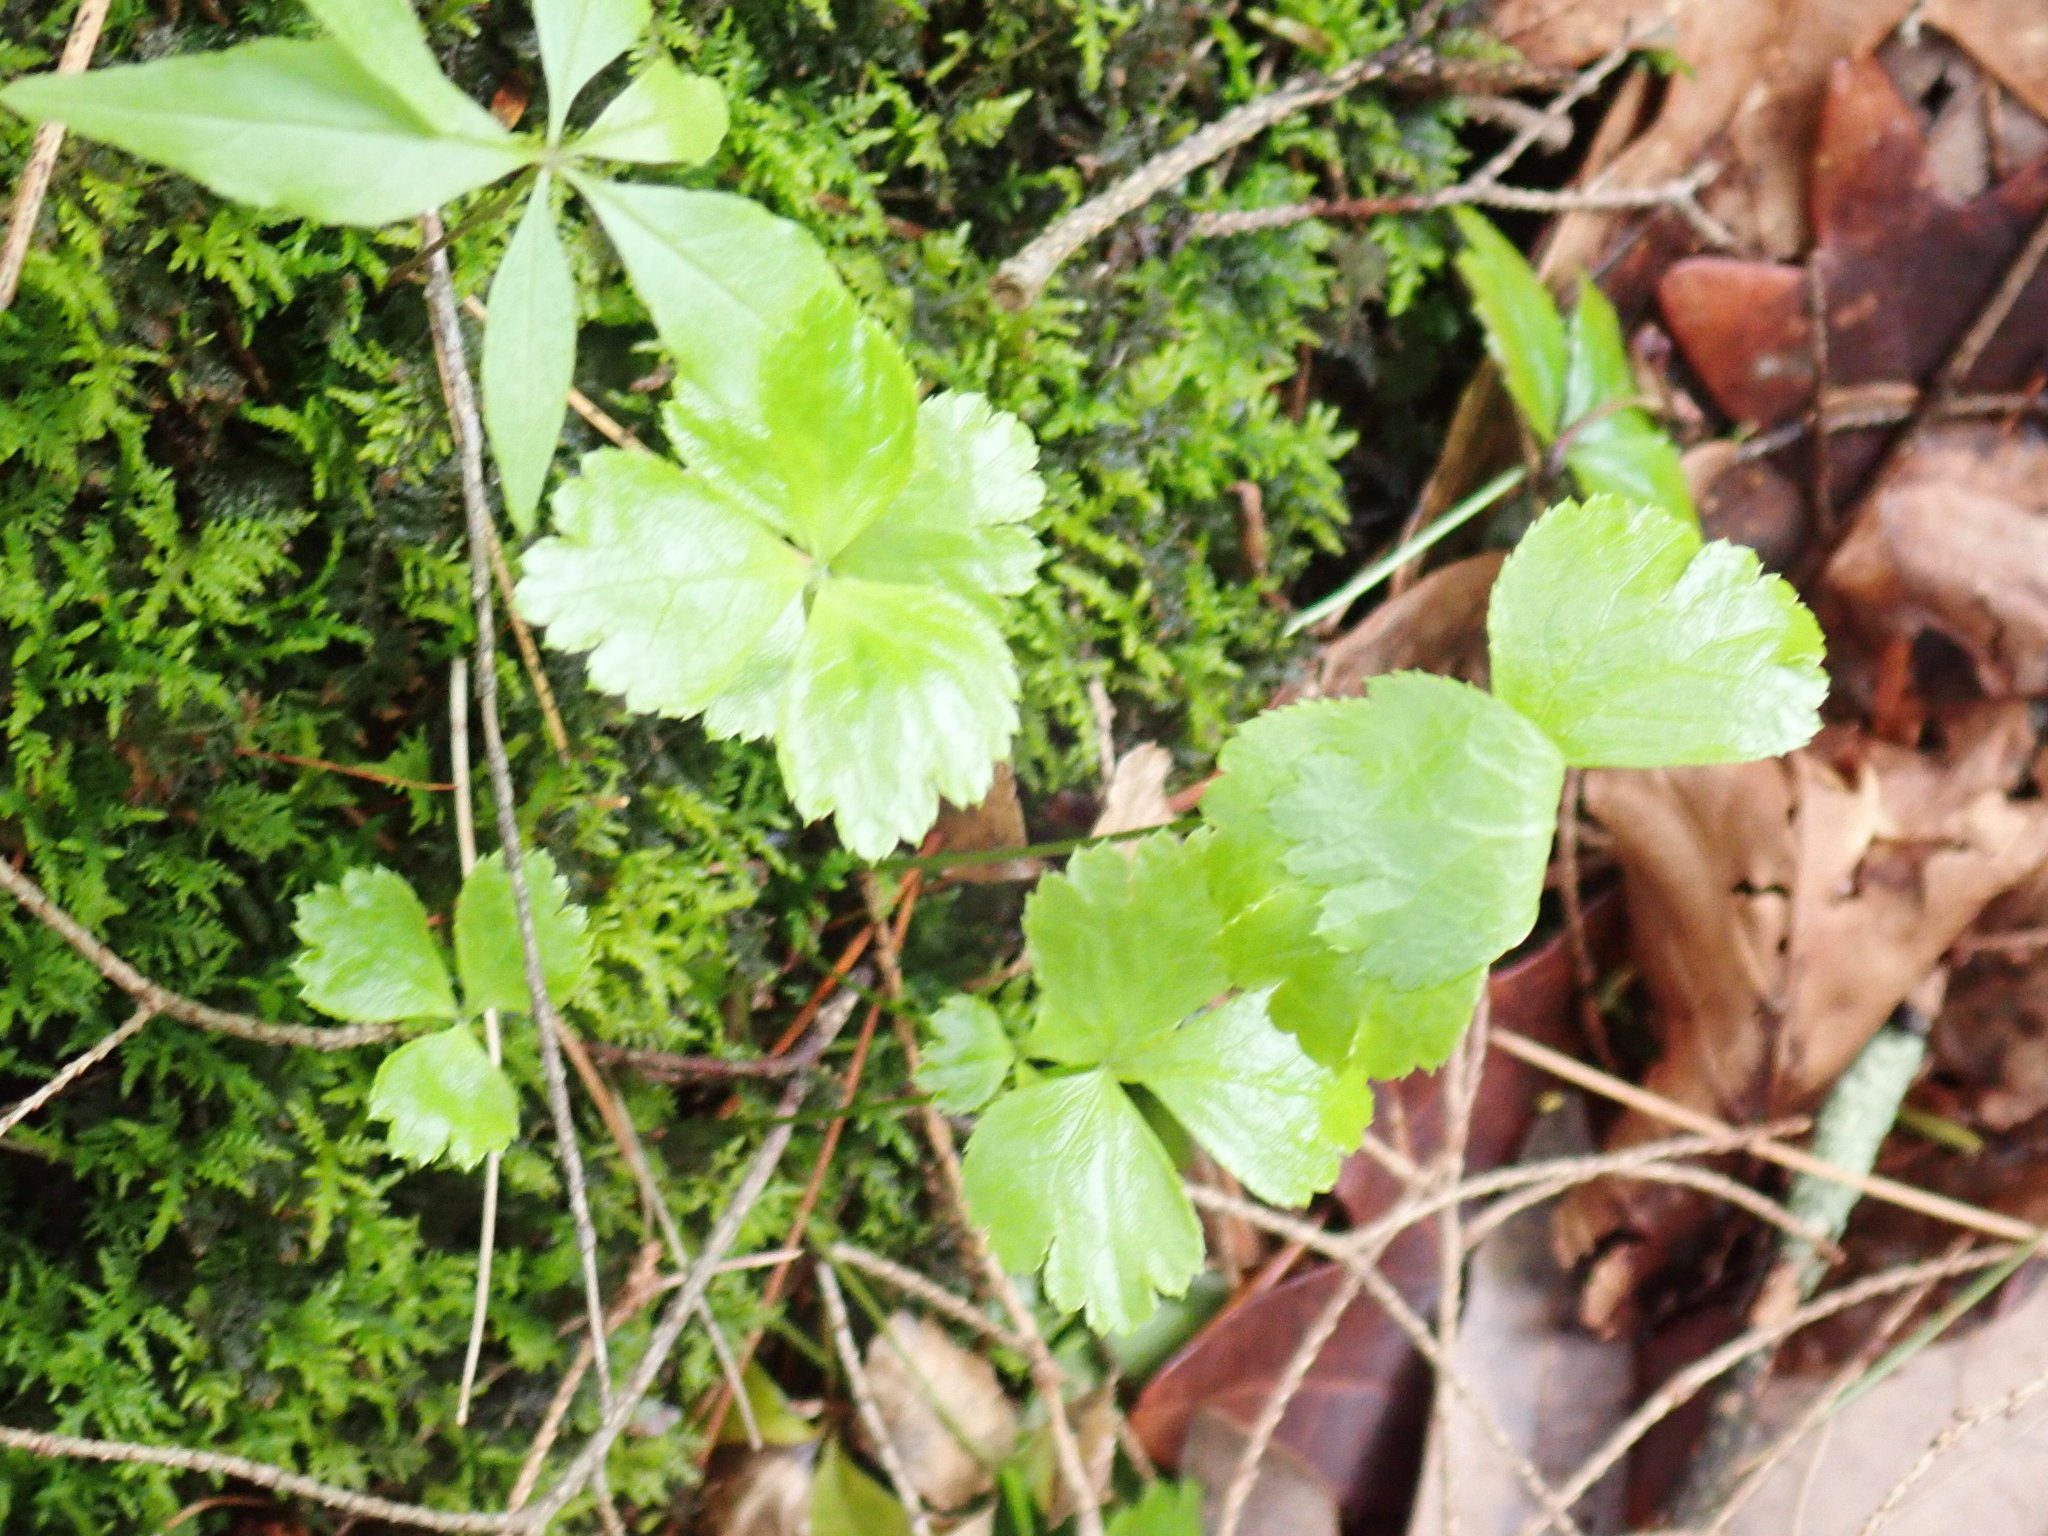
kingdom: Plantae
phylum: Tracheophyta
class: Magnoliopsida
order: Ranunculales
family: Ranunculaceae
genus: Coptis
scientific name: Coptis trifolia
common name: Canker-root
